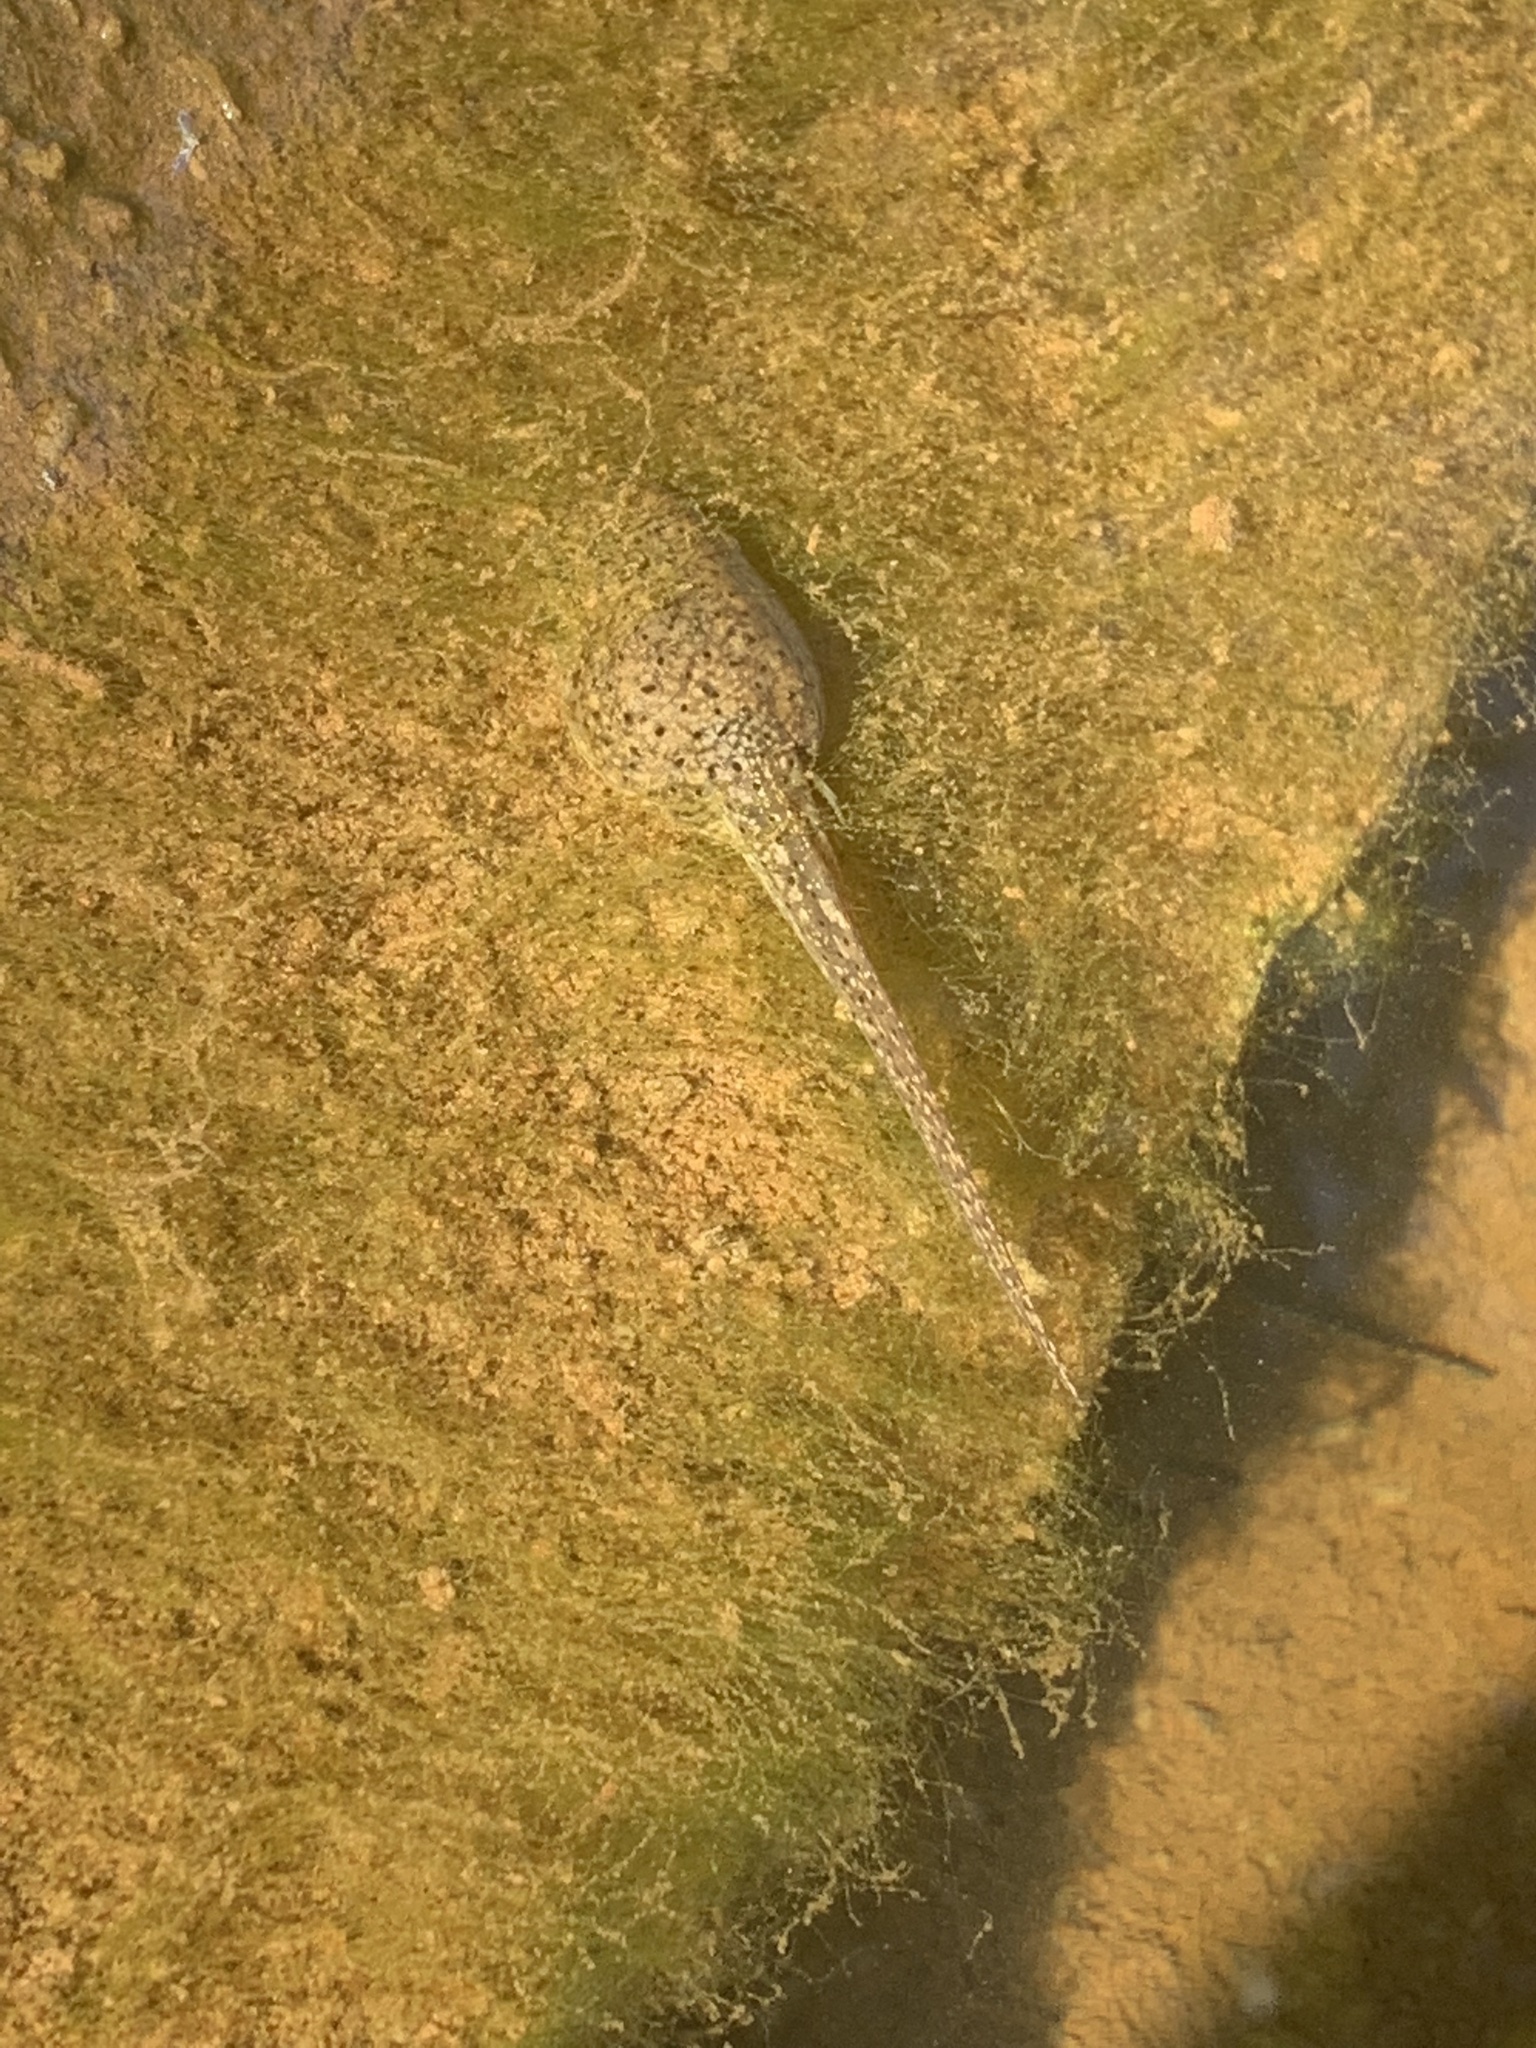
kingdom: Animalia
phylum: Chordata
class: Amphibia
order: Anura
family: Ranidae
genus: Lithobates
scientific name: Lithobates catesbeianus
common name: American bullfrog
